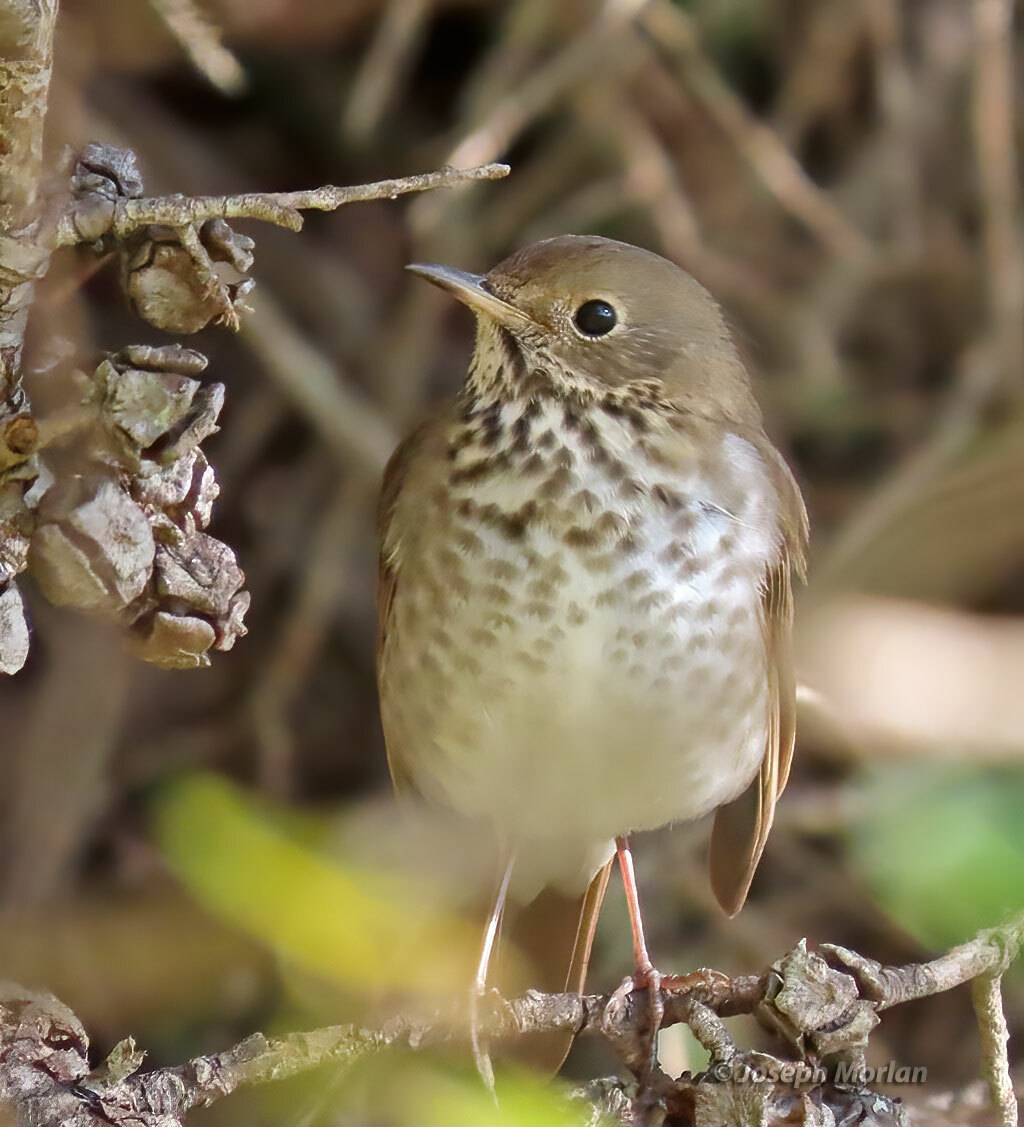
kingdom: Animalia
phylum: Chordata
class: Aves
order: Passeriformes
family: Turdidae
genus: Catharus
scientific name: Catharus guttatus
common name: Hermit thrush
